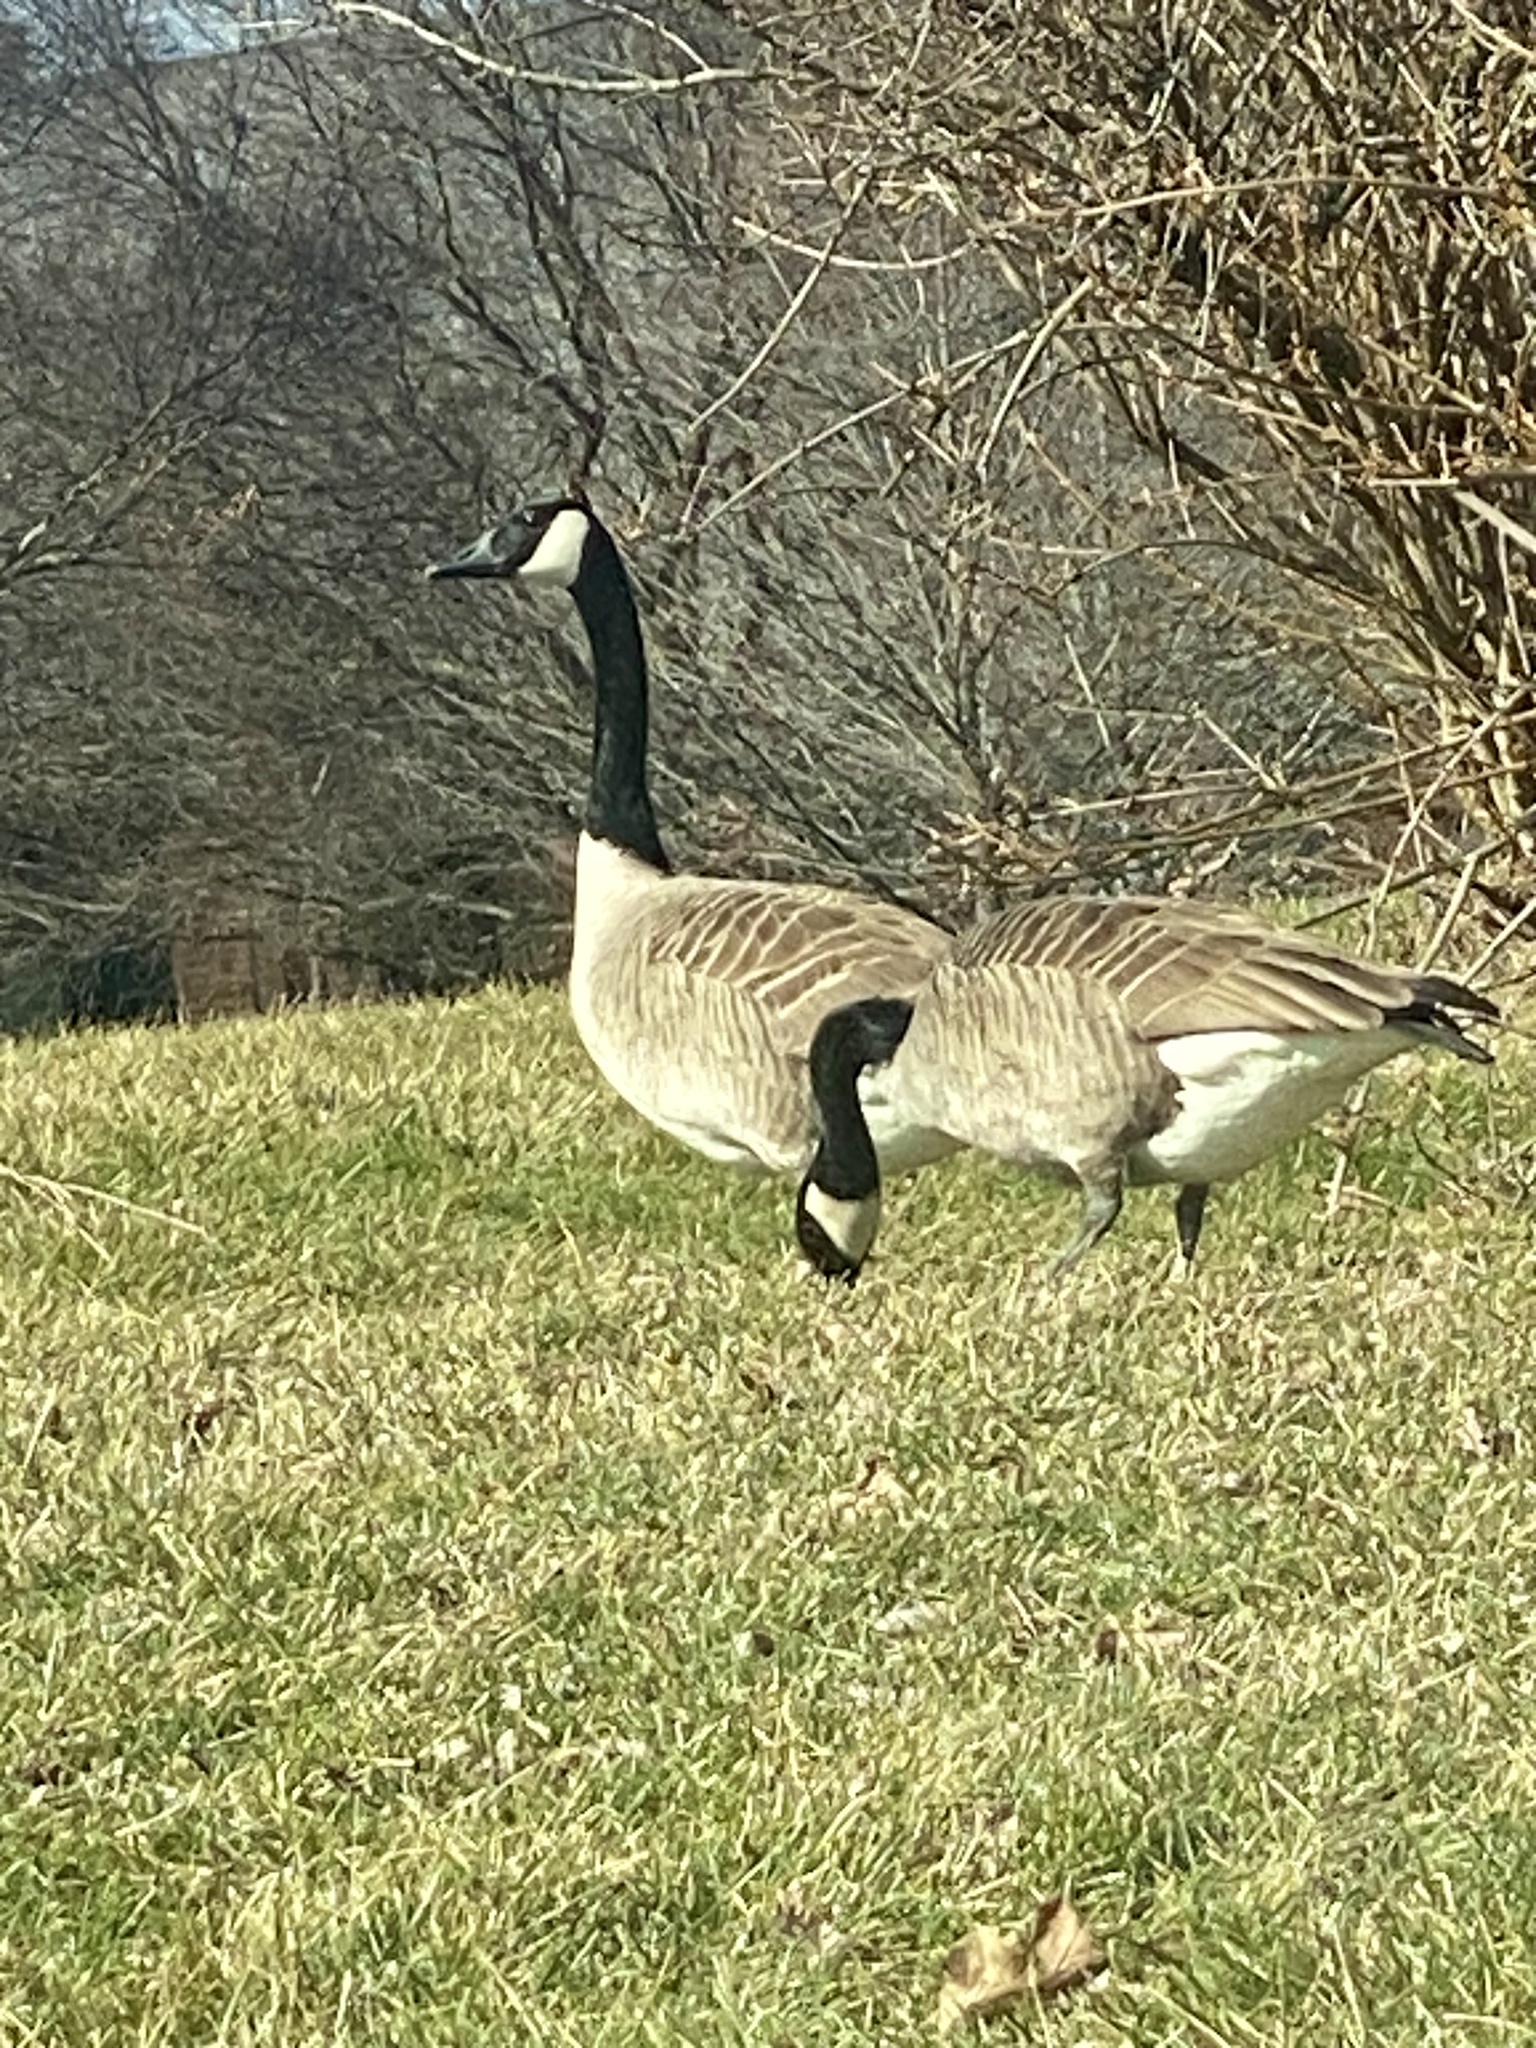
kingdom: Animalia
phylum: Chordata
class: Aves
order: Anseriformes
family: Anatidae
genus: Branta
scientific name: Branta canadensis
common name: Canada goose
